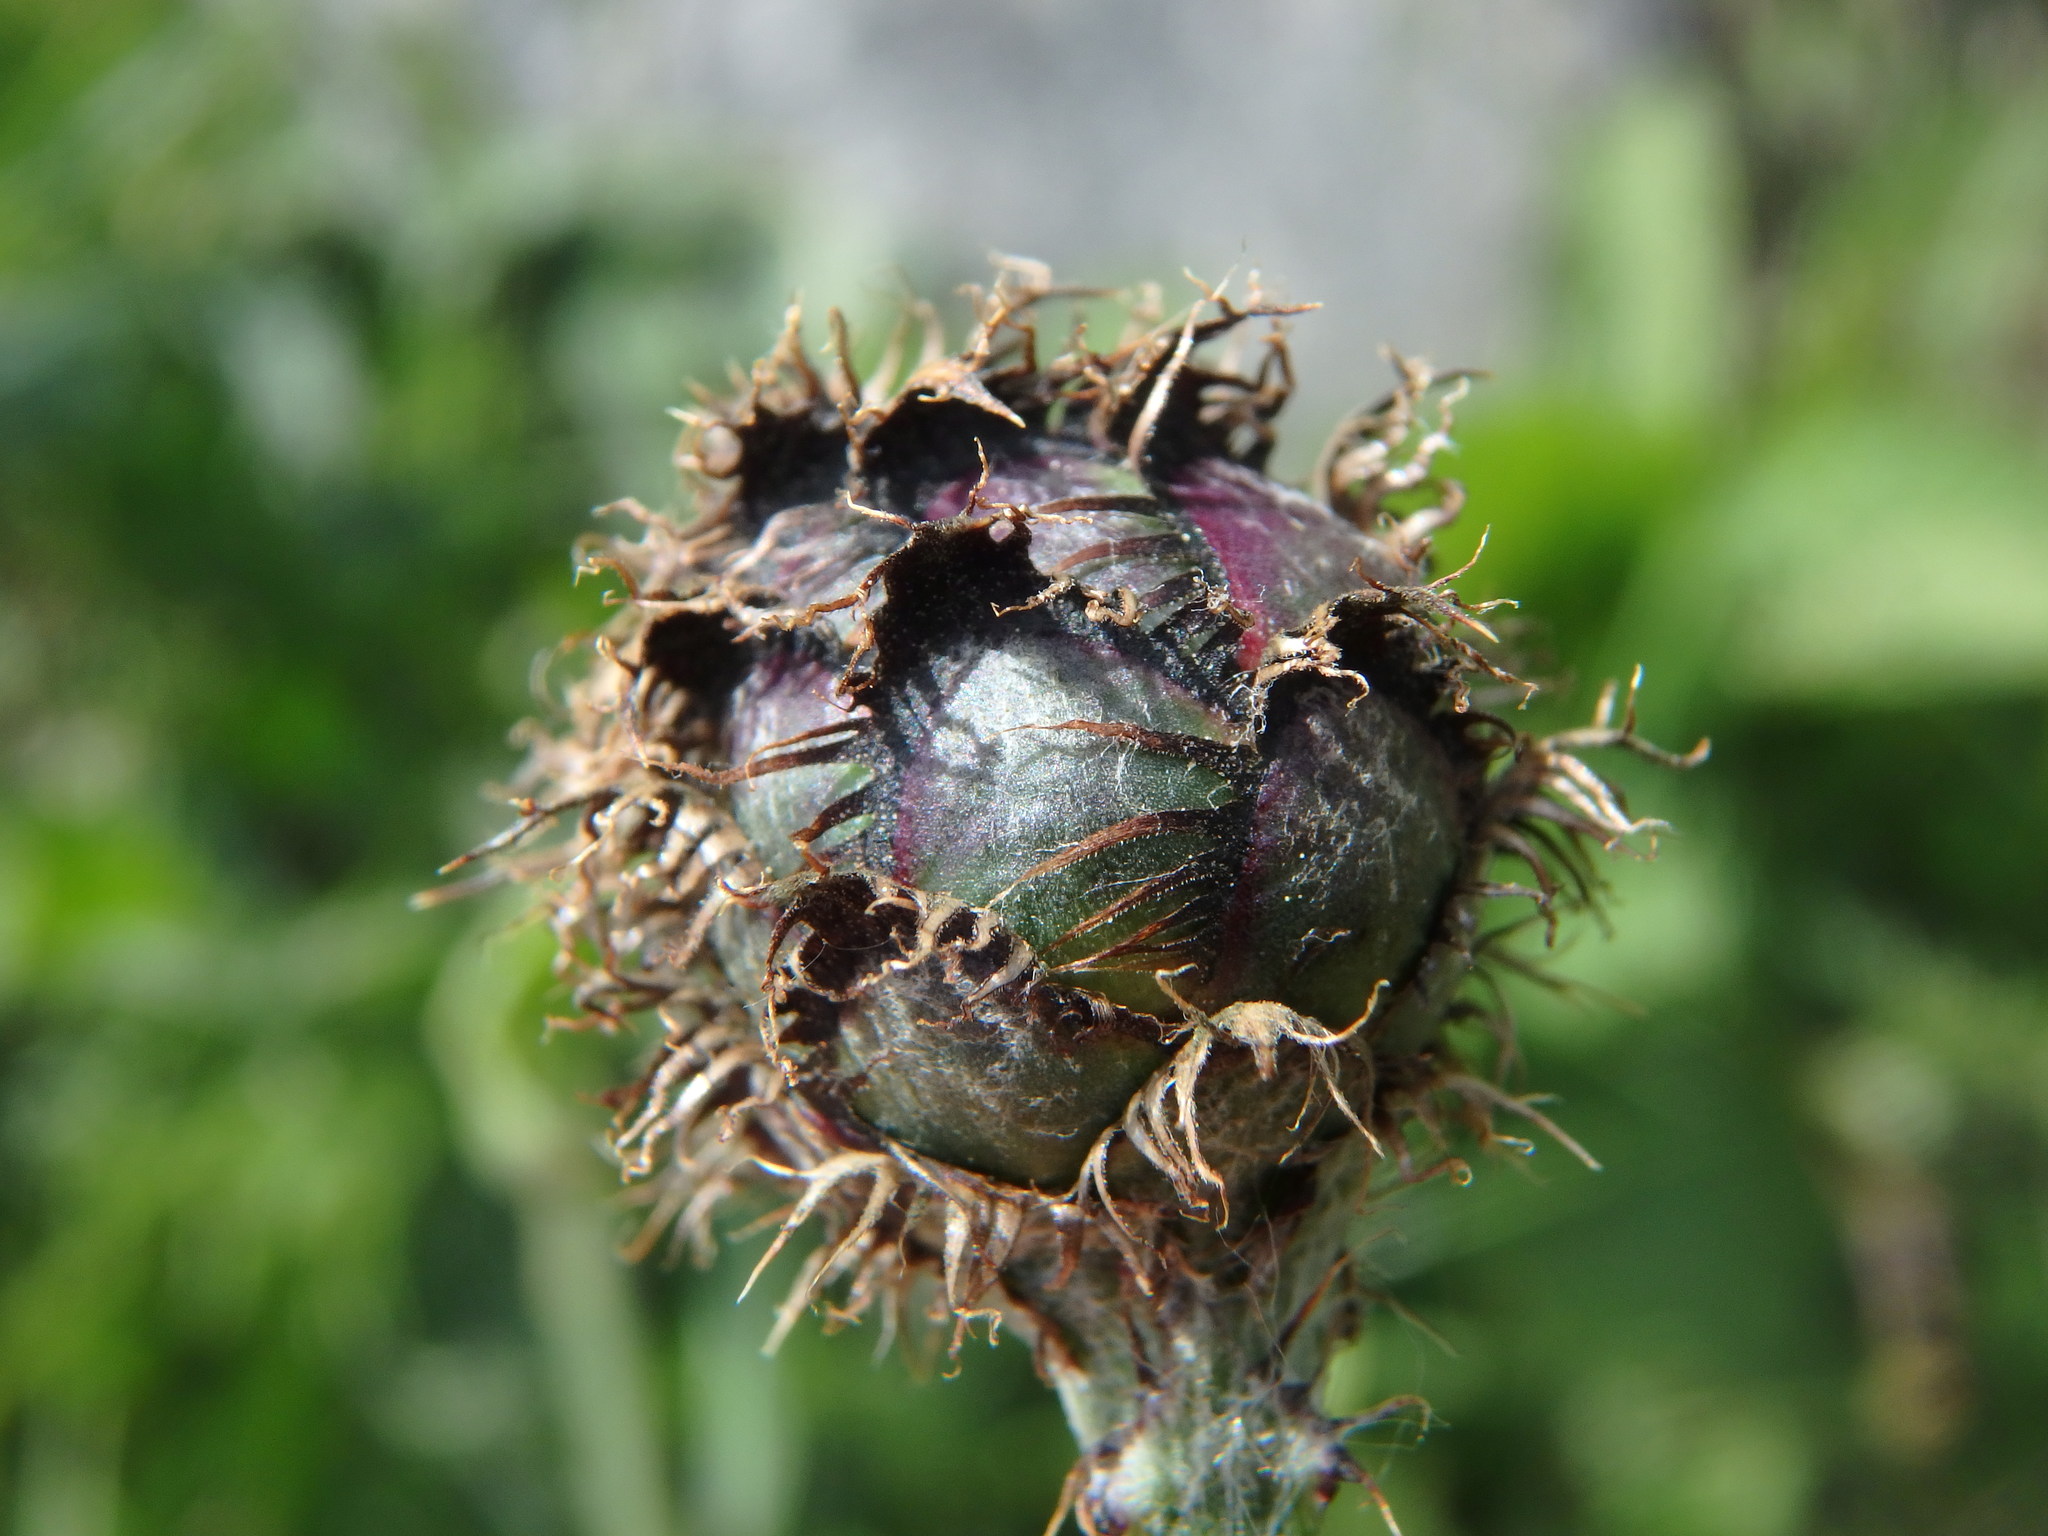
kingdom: Plantae
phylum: Tracheophyta
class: Magnoliopsida
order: Asterales
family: Asteraceae
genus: Centaurea
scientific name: Centaurea scabiosa
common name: Greater knapweed
